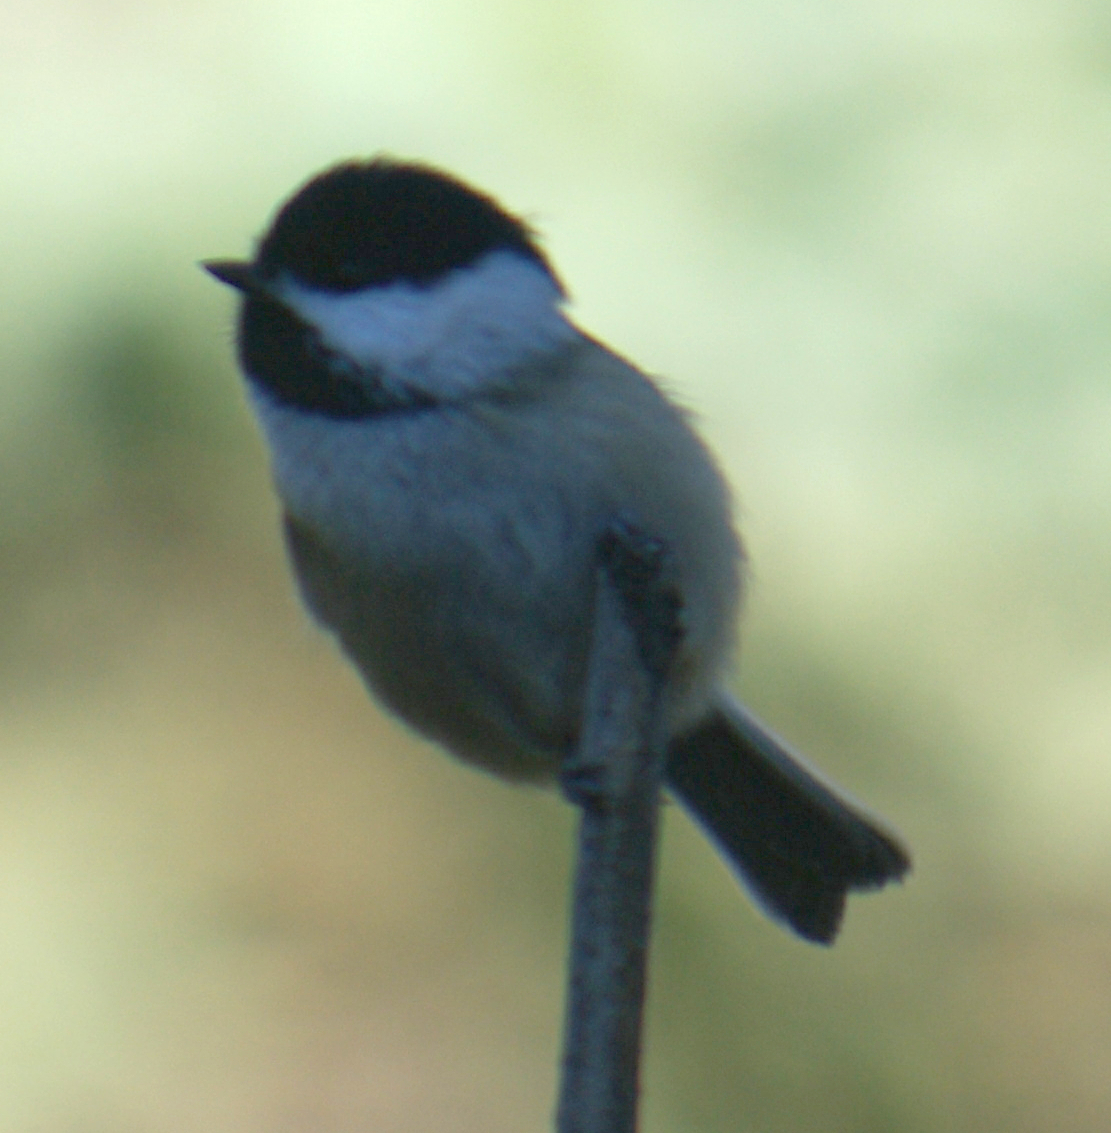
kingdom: Animalia
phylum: Chordata
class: Aves
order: Passeriformes
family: Paridae
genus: Poecile
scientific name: Poecile atricapillus
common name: Black-capped chickadee
